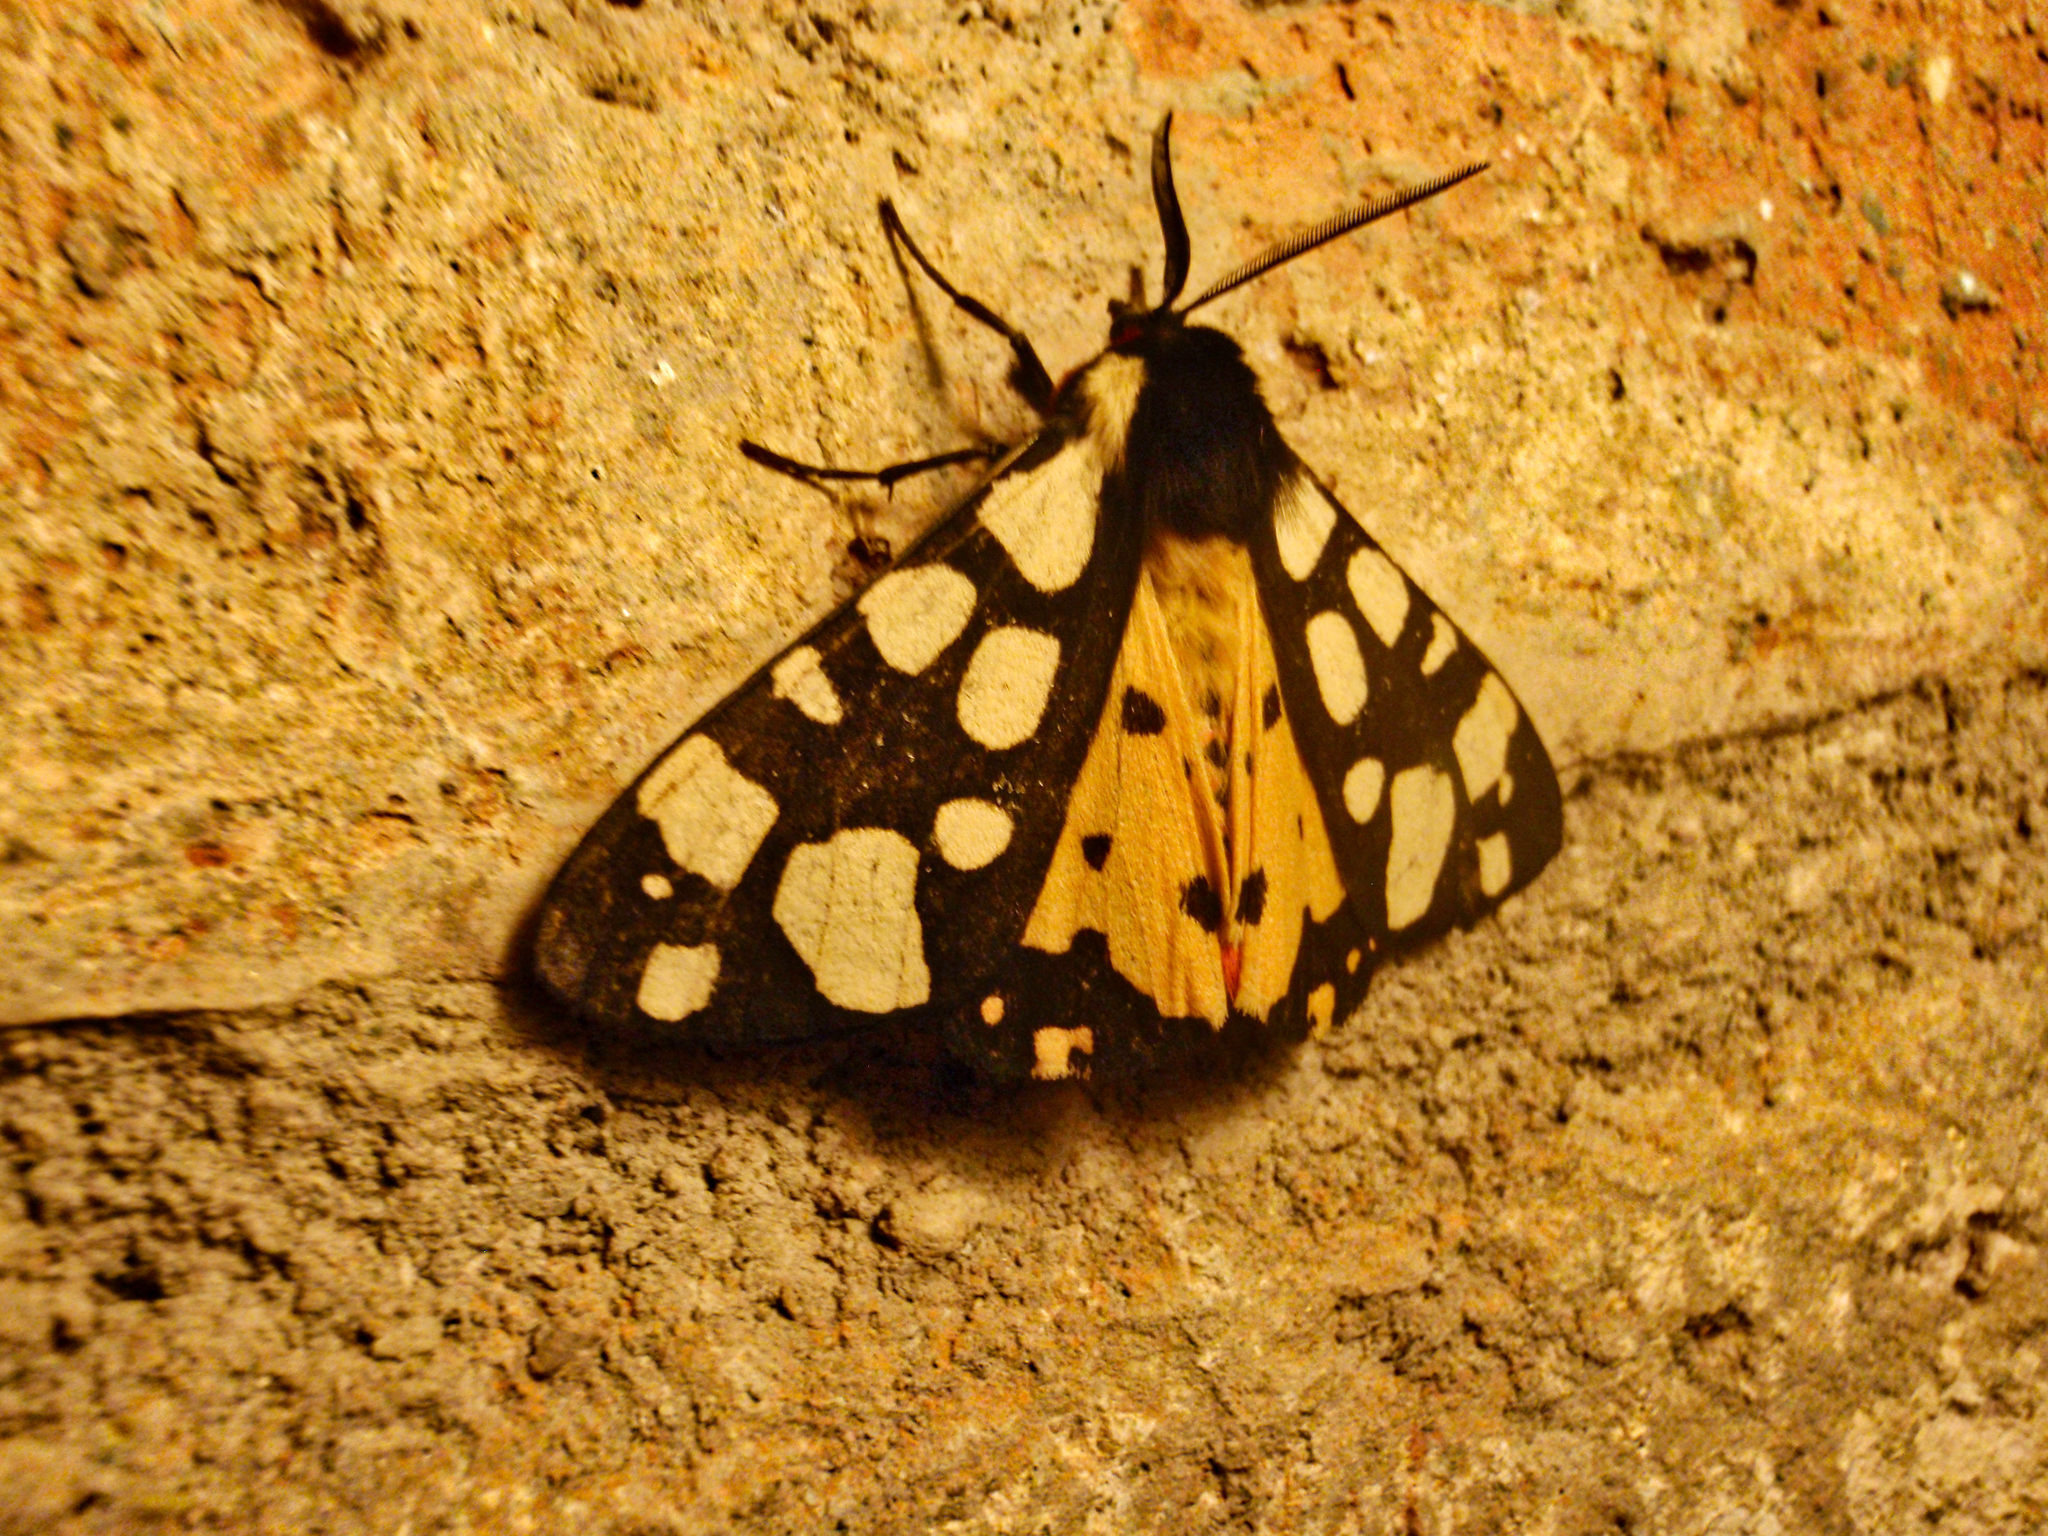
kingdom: Animalia
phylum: Arthropoda
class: Insecta
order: Lepidoptera
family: Erebidae
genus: Epicallia
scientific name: Epicallia villica
